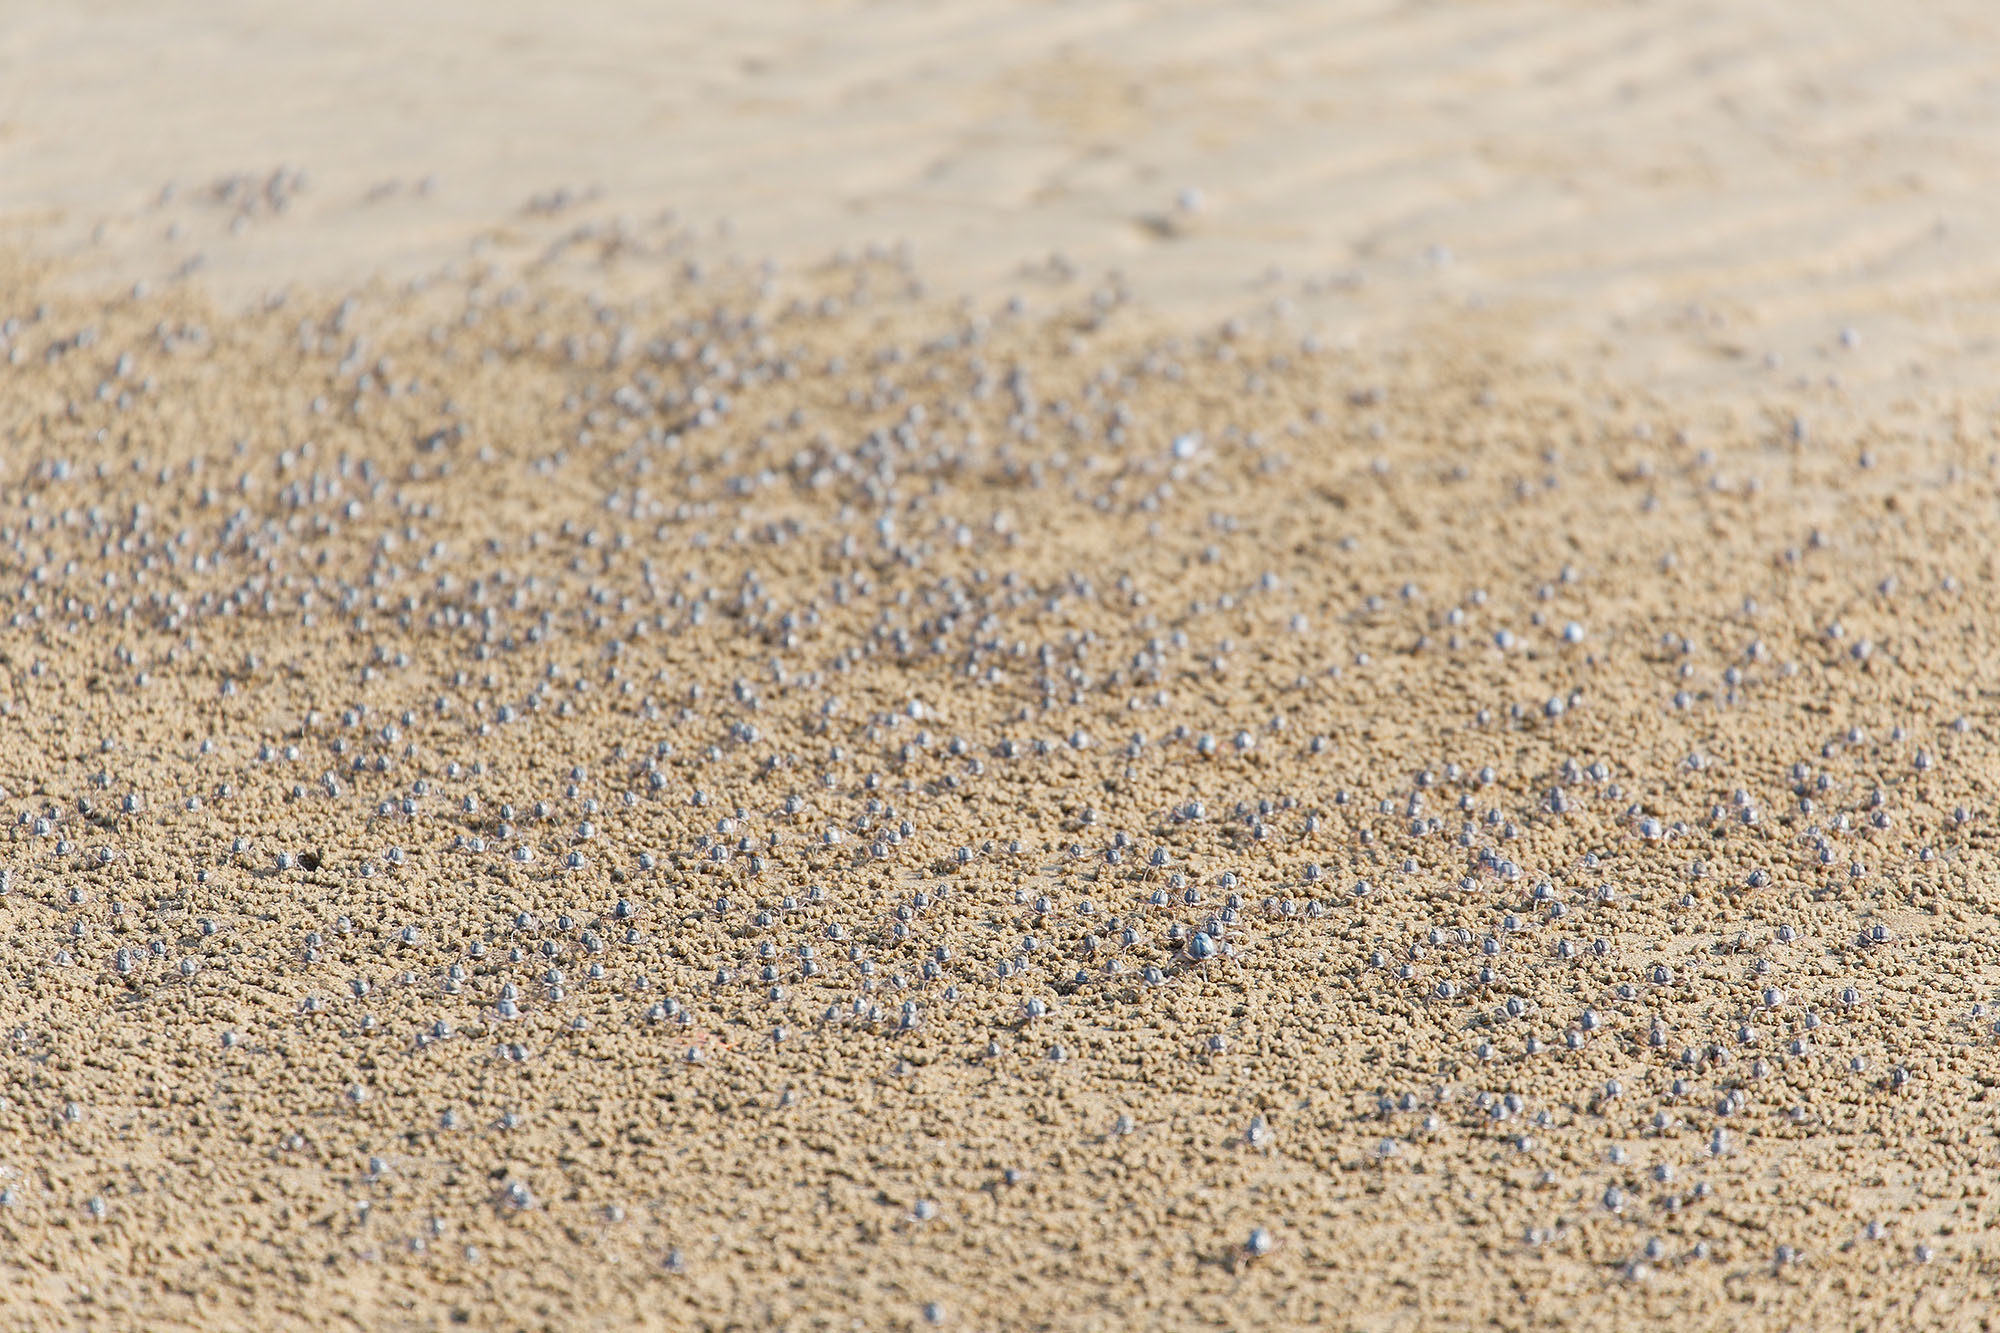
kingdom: Animalia
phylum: Arthropoda
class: Malacostraca
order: Decapoda
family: Mictyridae
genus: Mictyris
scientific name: Mictyris longicarpus
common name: Light-blue soldier crab
